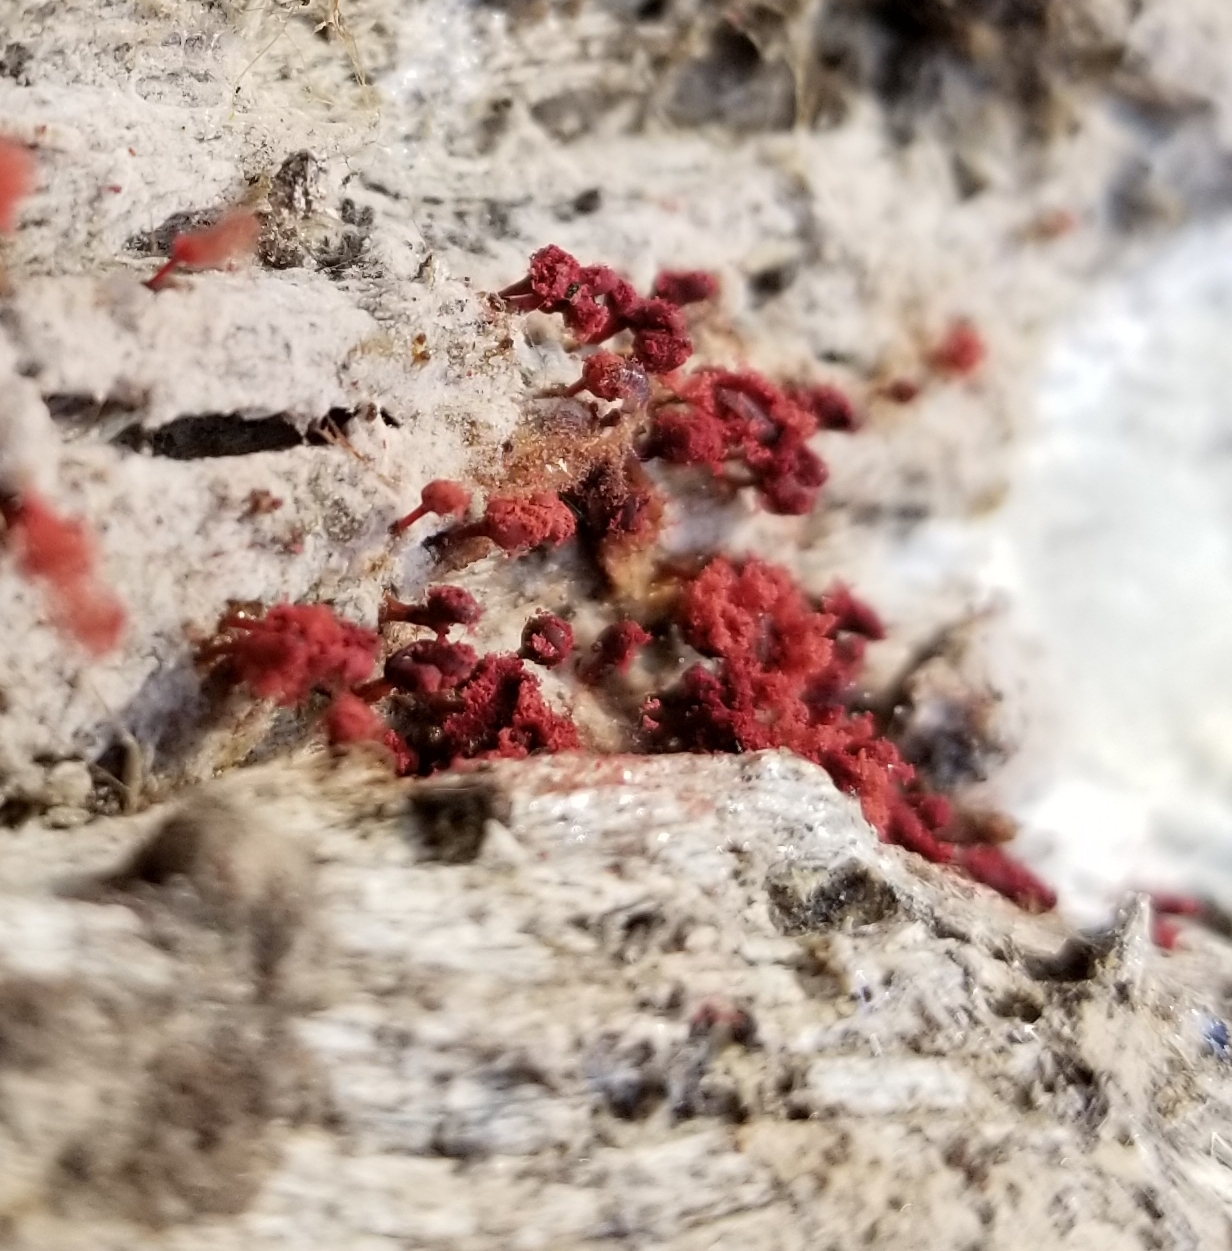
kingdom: Protozoa
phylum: Mycetozoa
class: Myxomycetes
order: Trichiales
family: Arcyriaceae
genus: Arcyria
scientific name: Arcyria denudata
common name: Carnival candy slime mold
